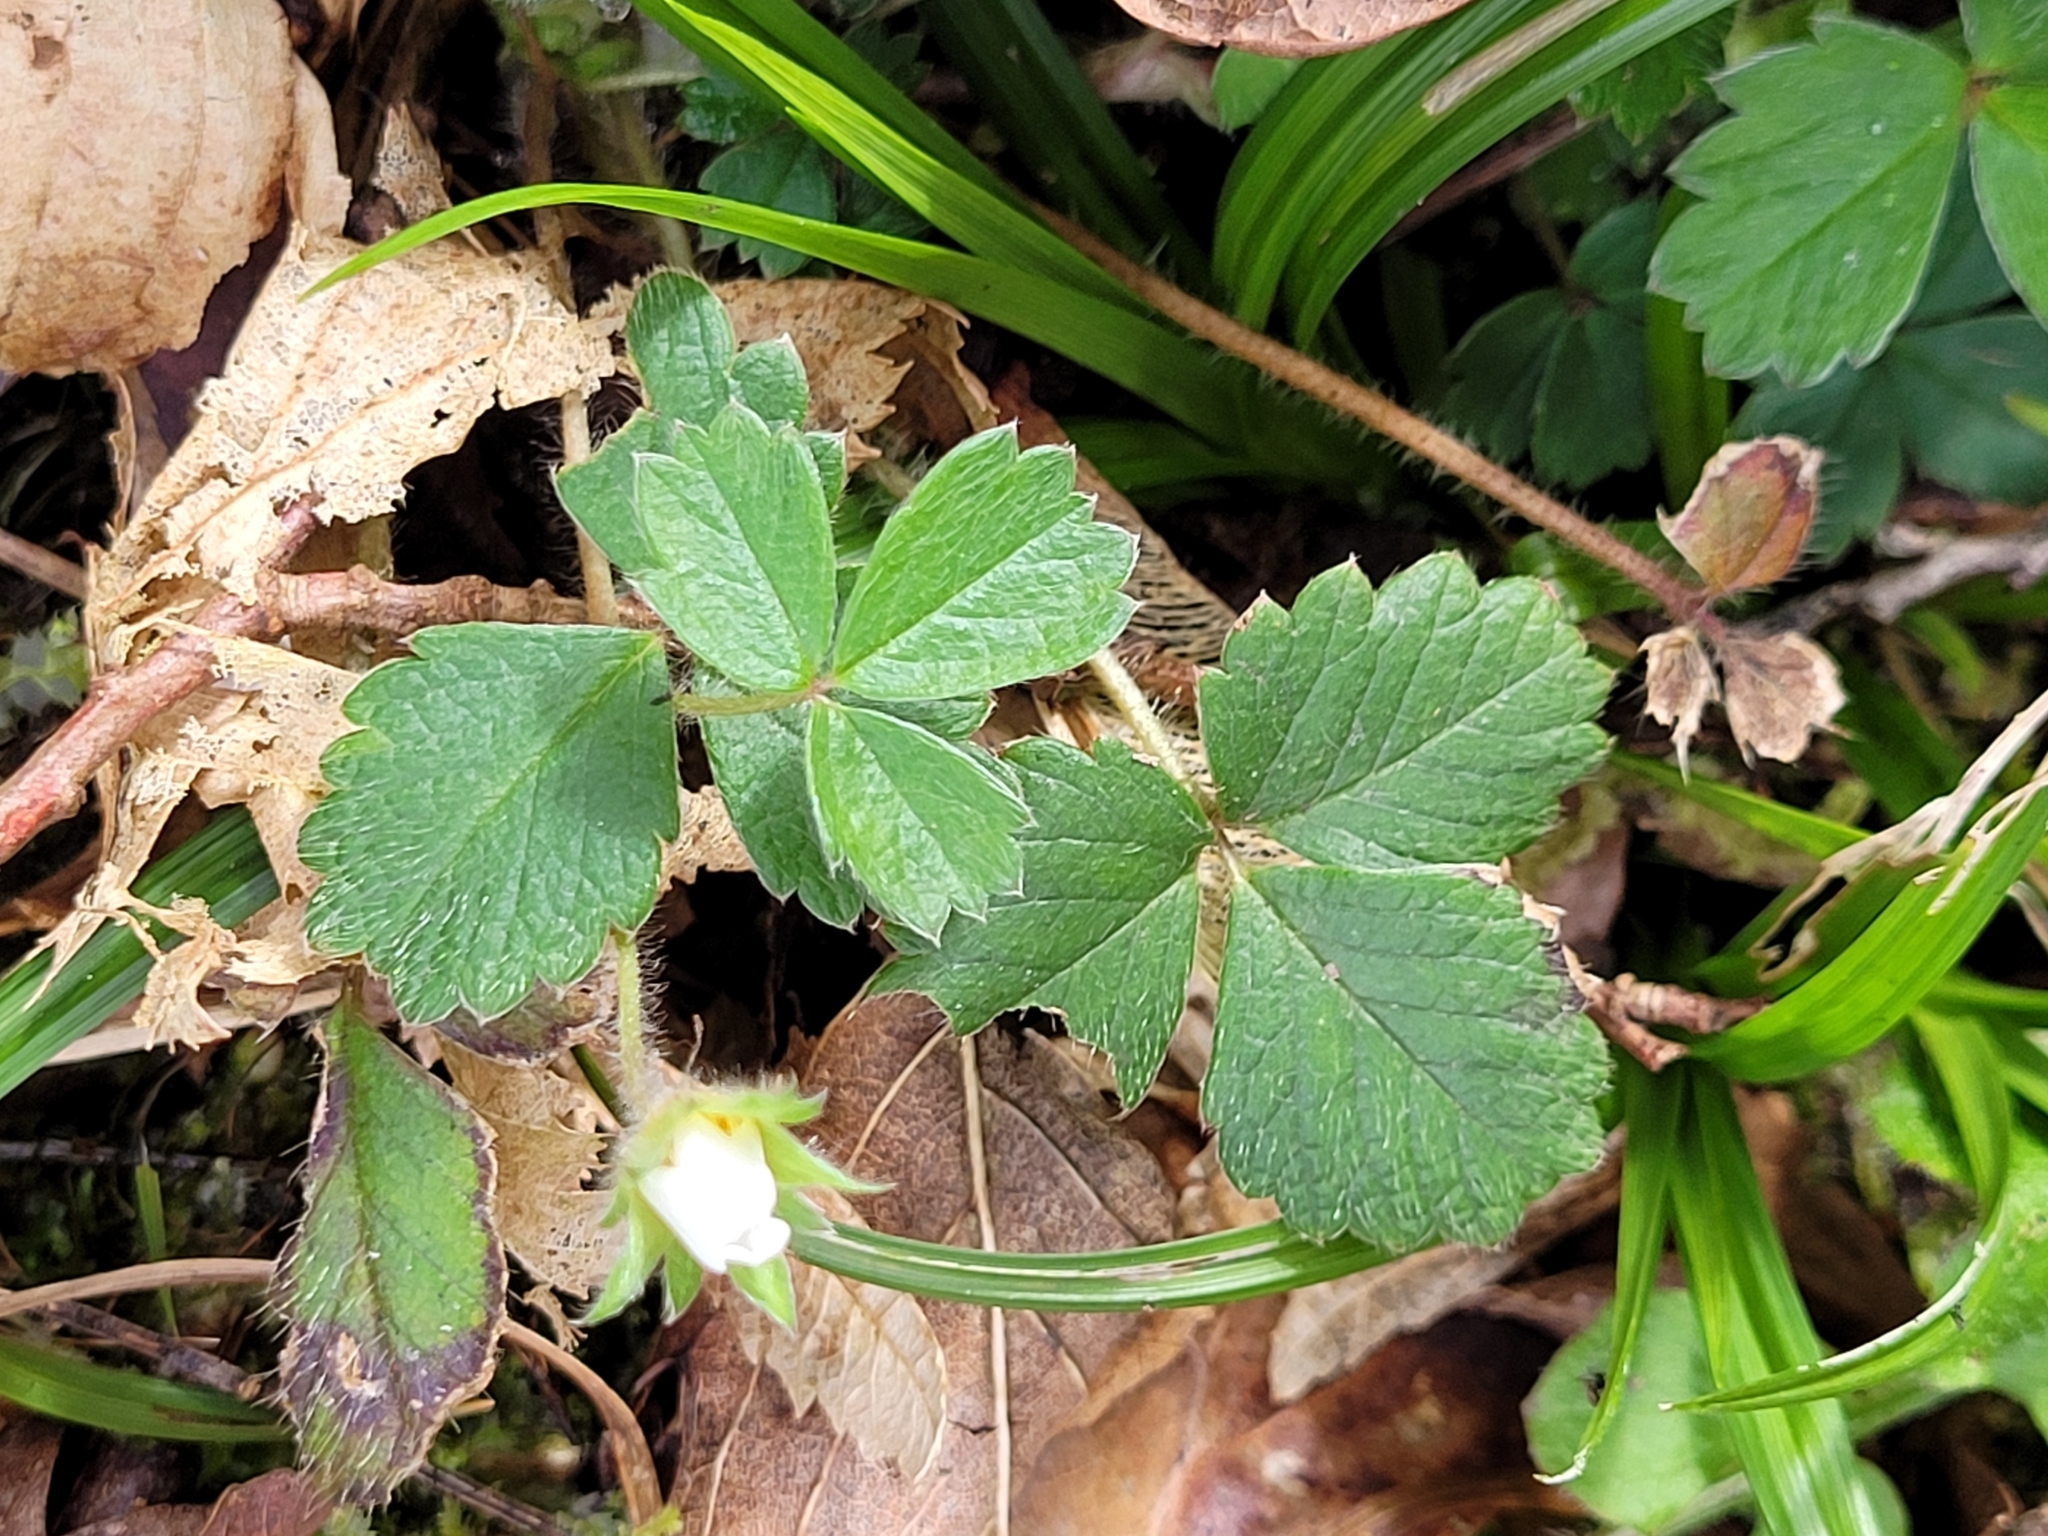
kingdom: Plantae
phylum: Tracheophyta
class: Magnoliopsida
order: Rosales
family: Rosaceae
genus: Potentilla
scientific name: Potentilla sterilis
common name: Barren strawberry
